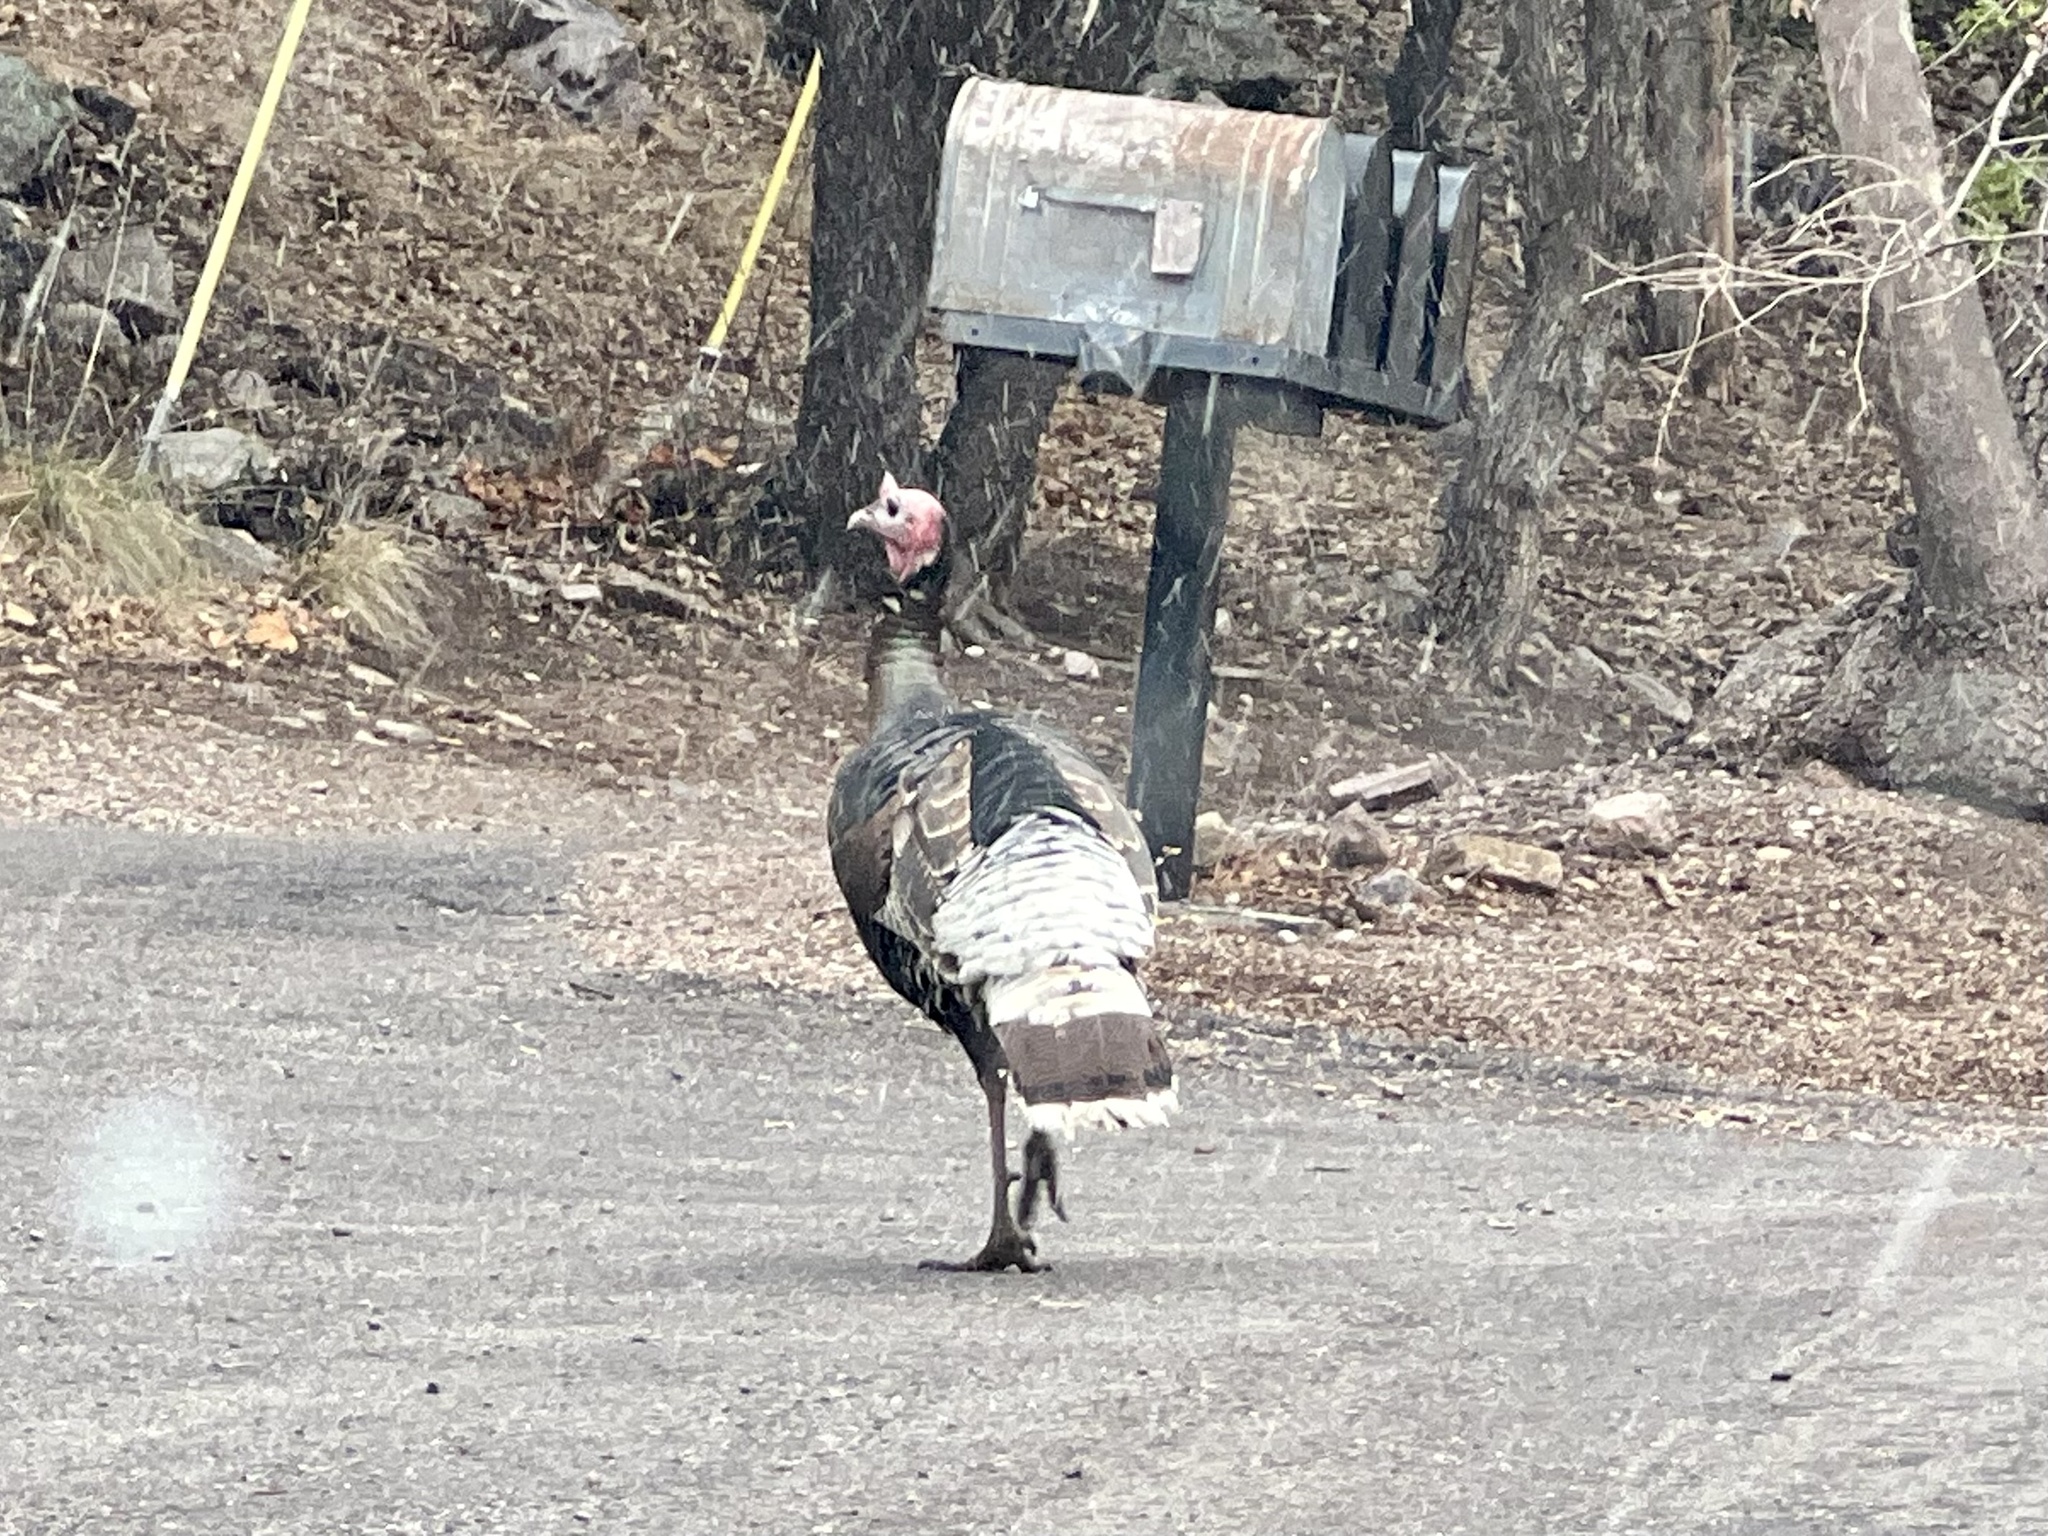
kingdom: Animalia
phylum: Chordata
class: Aves
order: Galliformes
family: Phasianidae
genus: Meleagris
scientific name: Meleagris gallopavo
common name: Wild turkey
